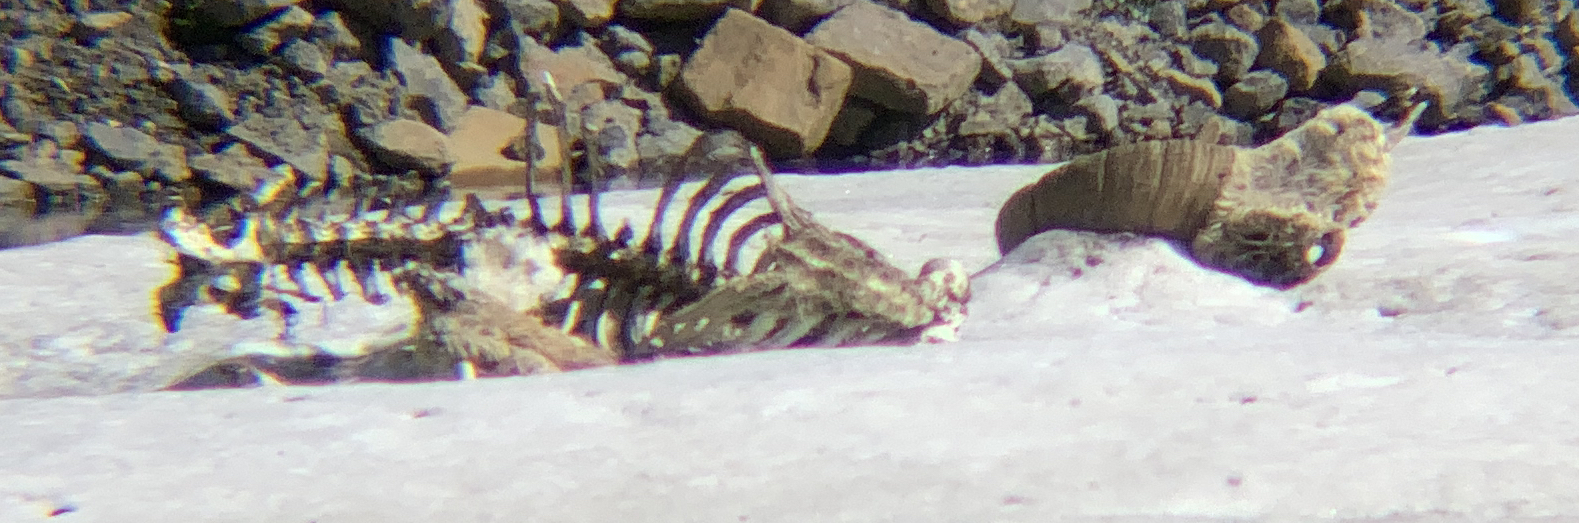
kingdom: Animalia
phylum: Chordata
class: Mammalia
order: Artiodactyla
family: Bovidae
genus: Ovis
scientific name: Ovis canadensis
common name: Bighorn sheep
